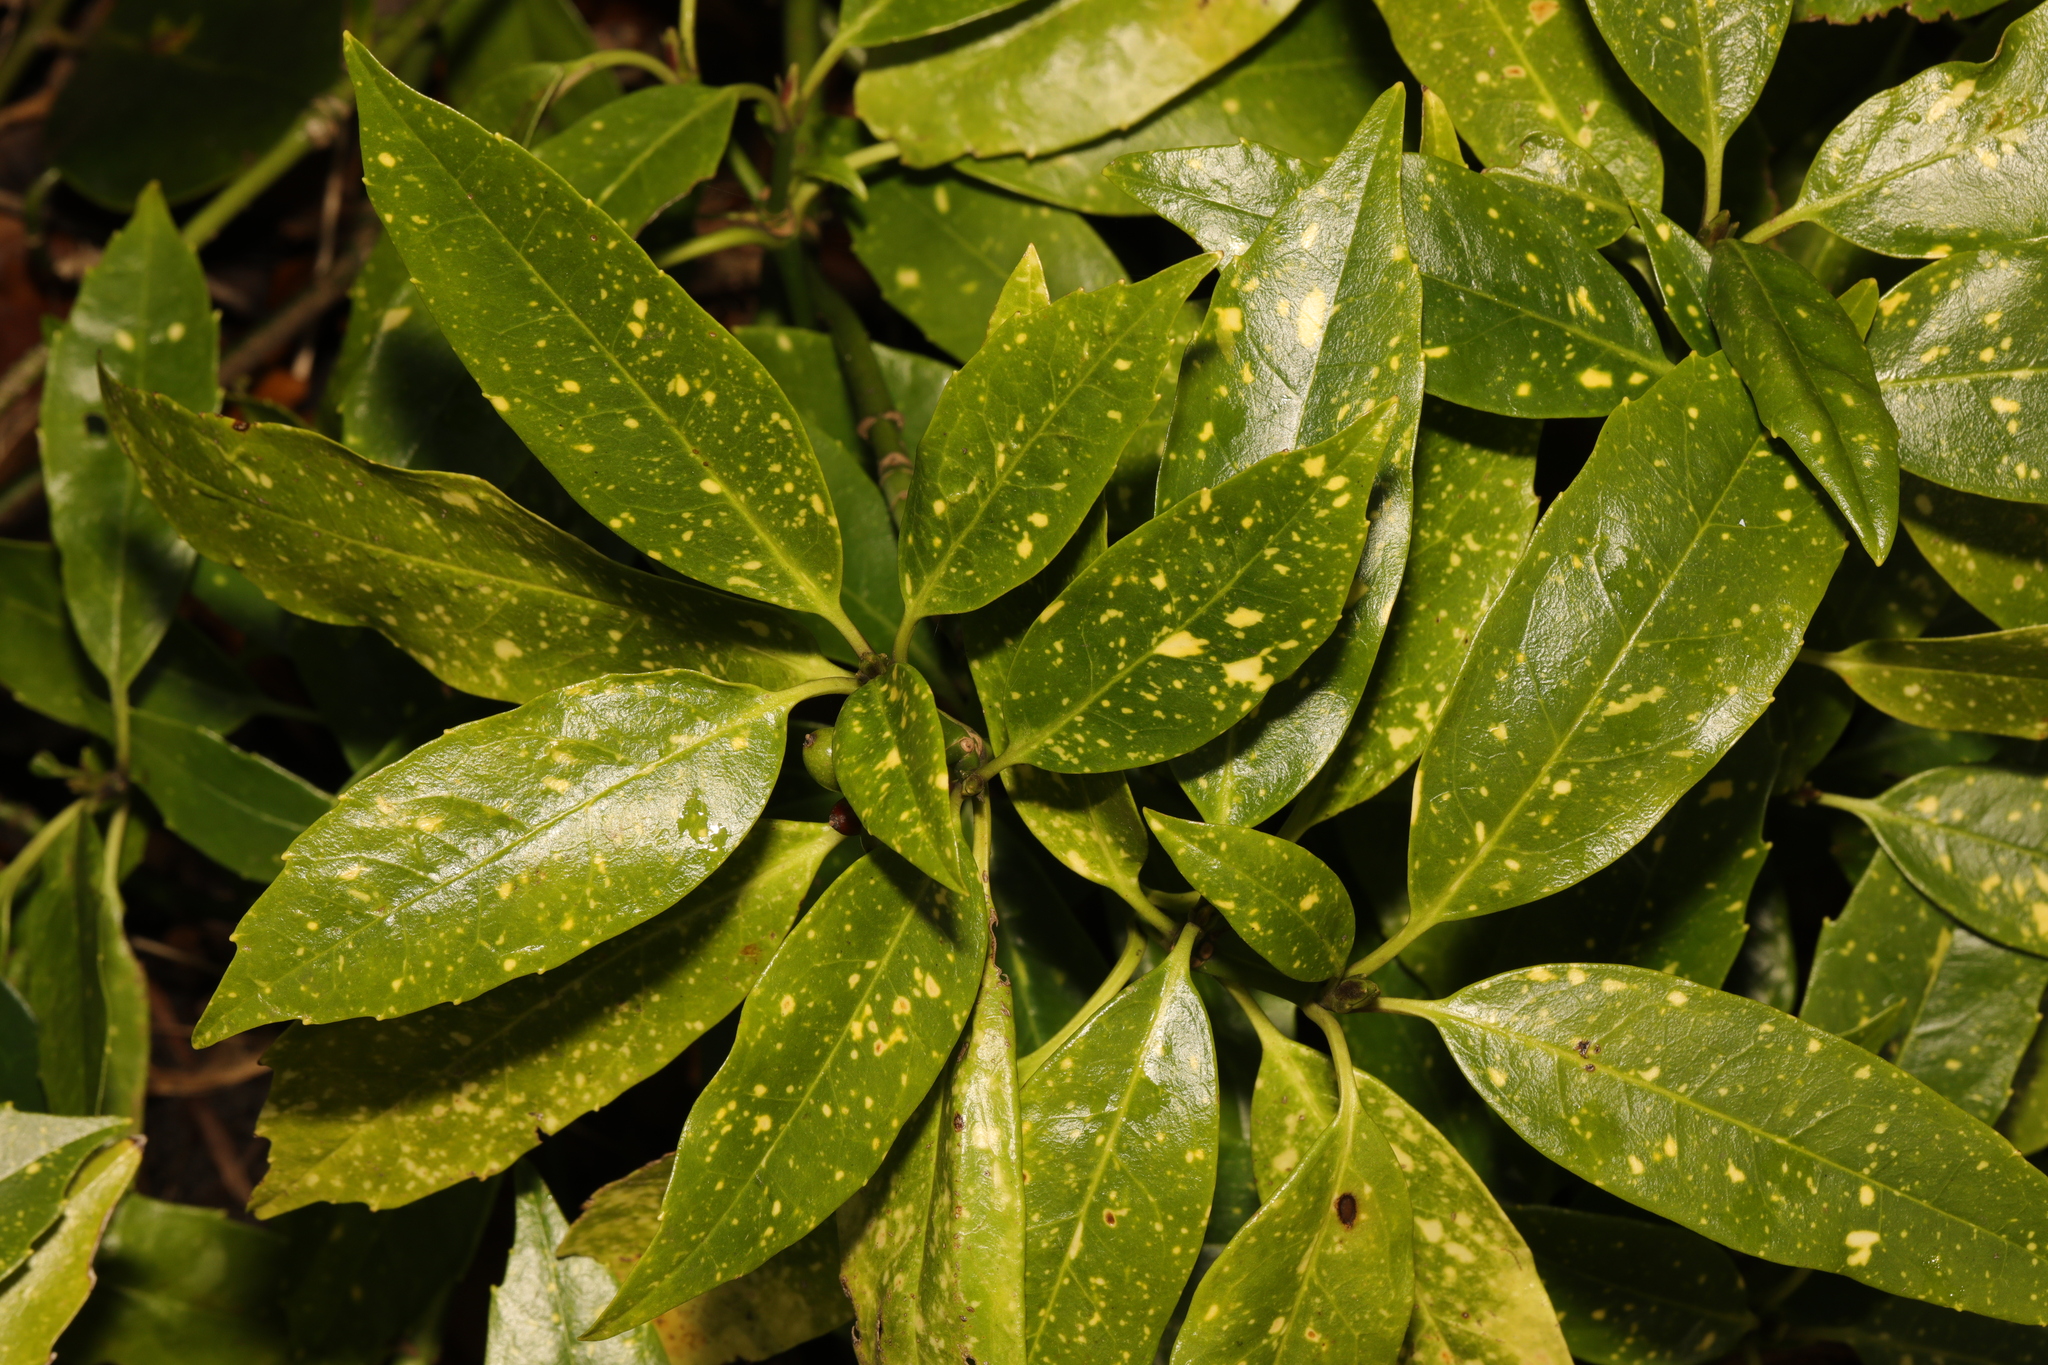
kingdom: Plantae
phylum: Tracheophyta
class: Magnoliopsida
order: Garryales
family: Garryaceae
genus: Aucuba
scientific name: Aucuba japonica
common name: Spotted-laurel
